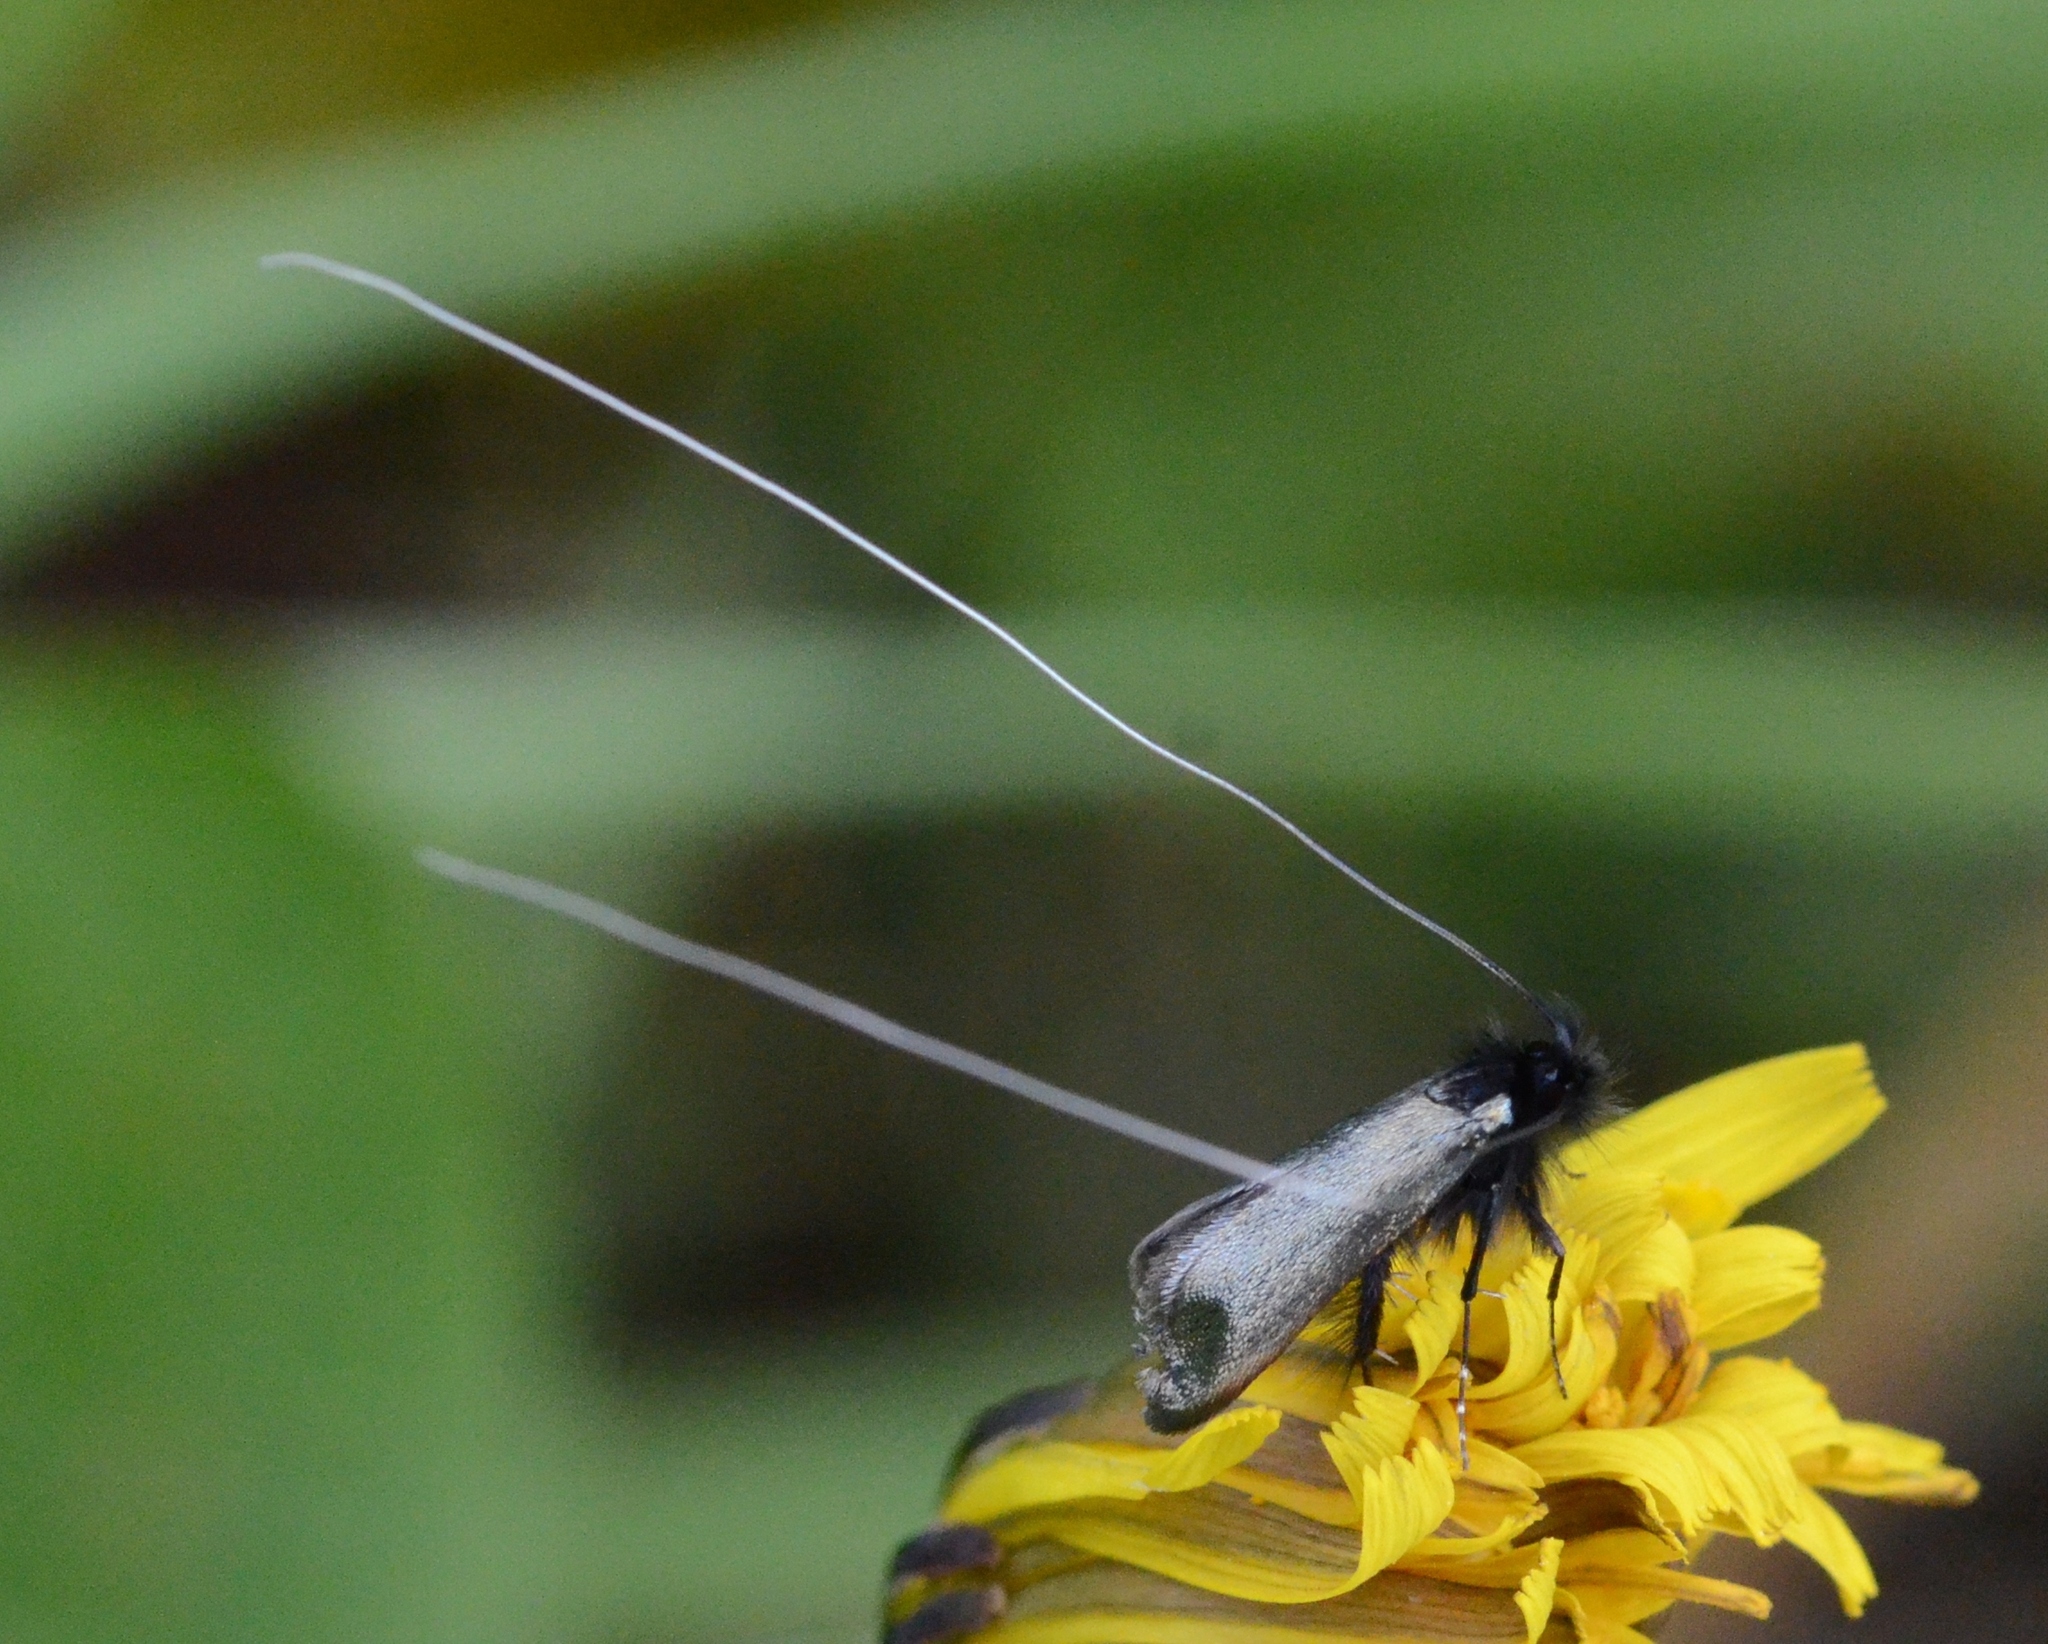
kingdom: Animalia
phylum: Arthropoda
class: Insecta
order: Lepidoptera
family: Adelidae
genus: Adela
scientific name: Adela viridella
